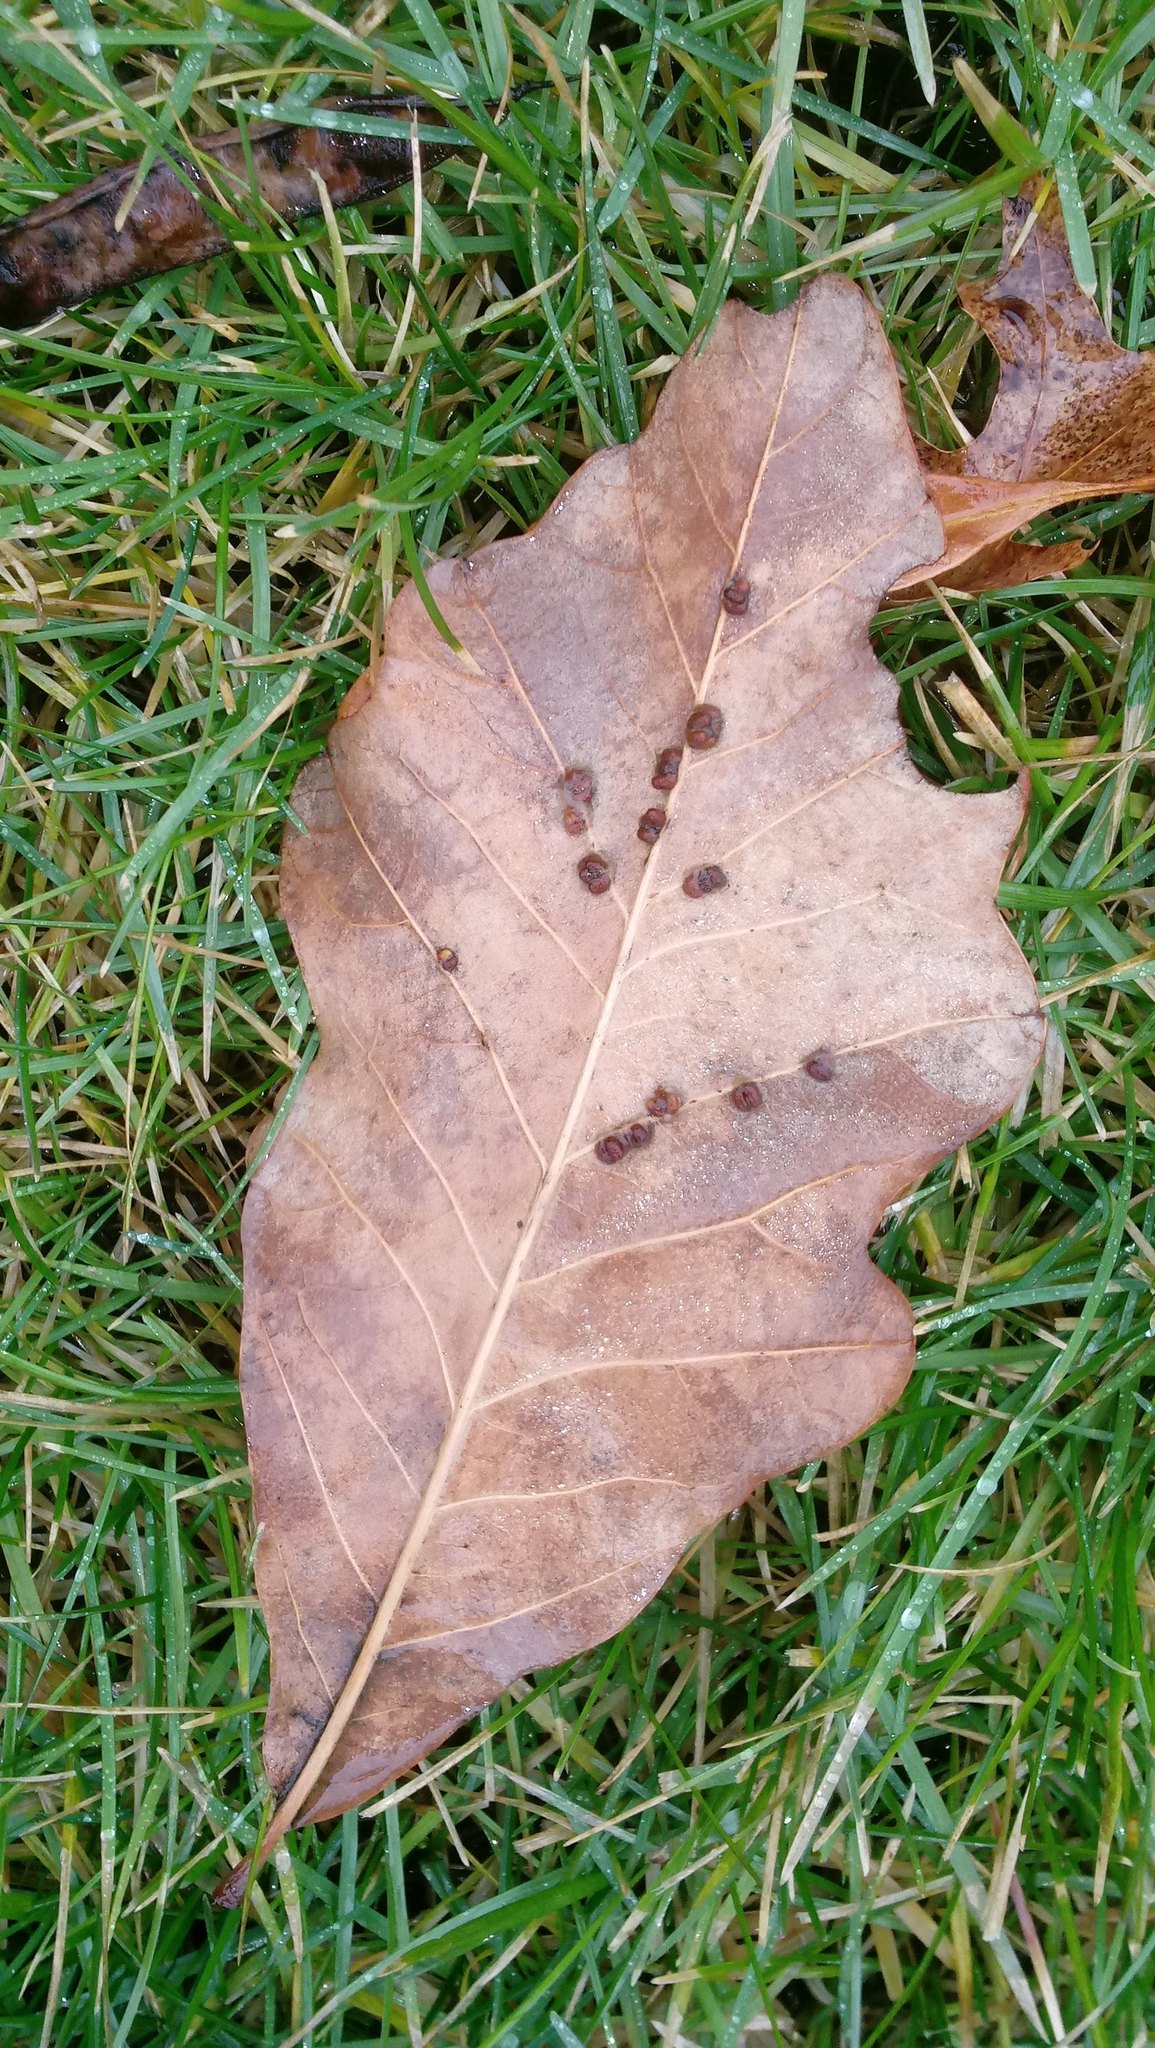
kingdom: Animalia
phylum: Arthropoda
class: Insecta
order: Hymenoptera
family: Cynipidae
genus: Andricus
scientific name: Andricus Druon ignotum
